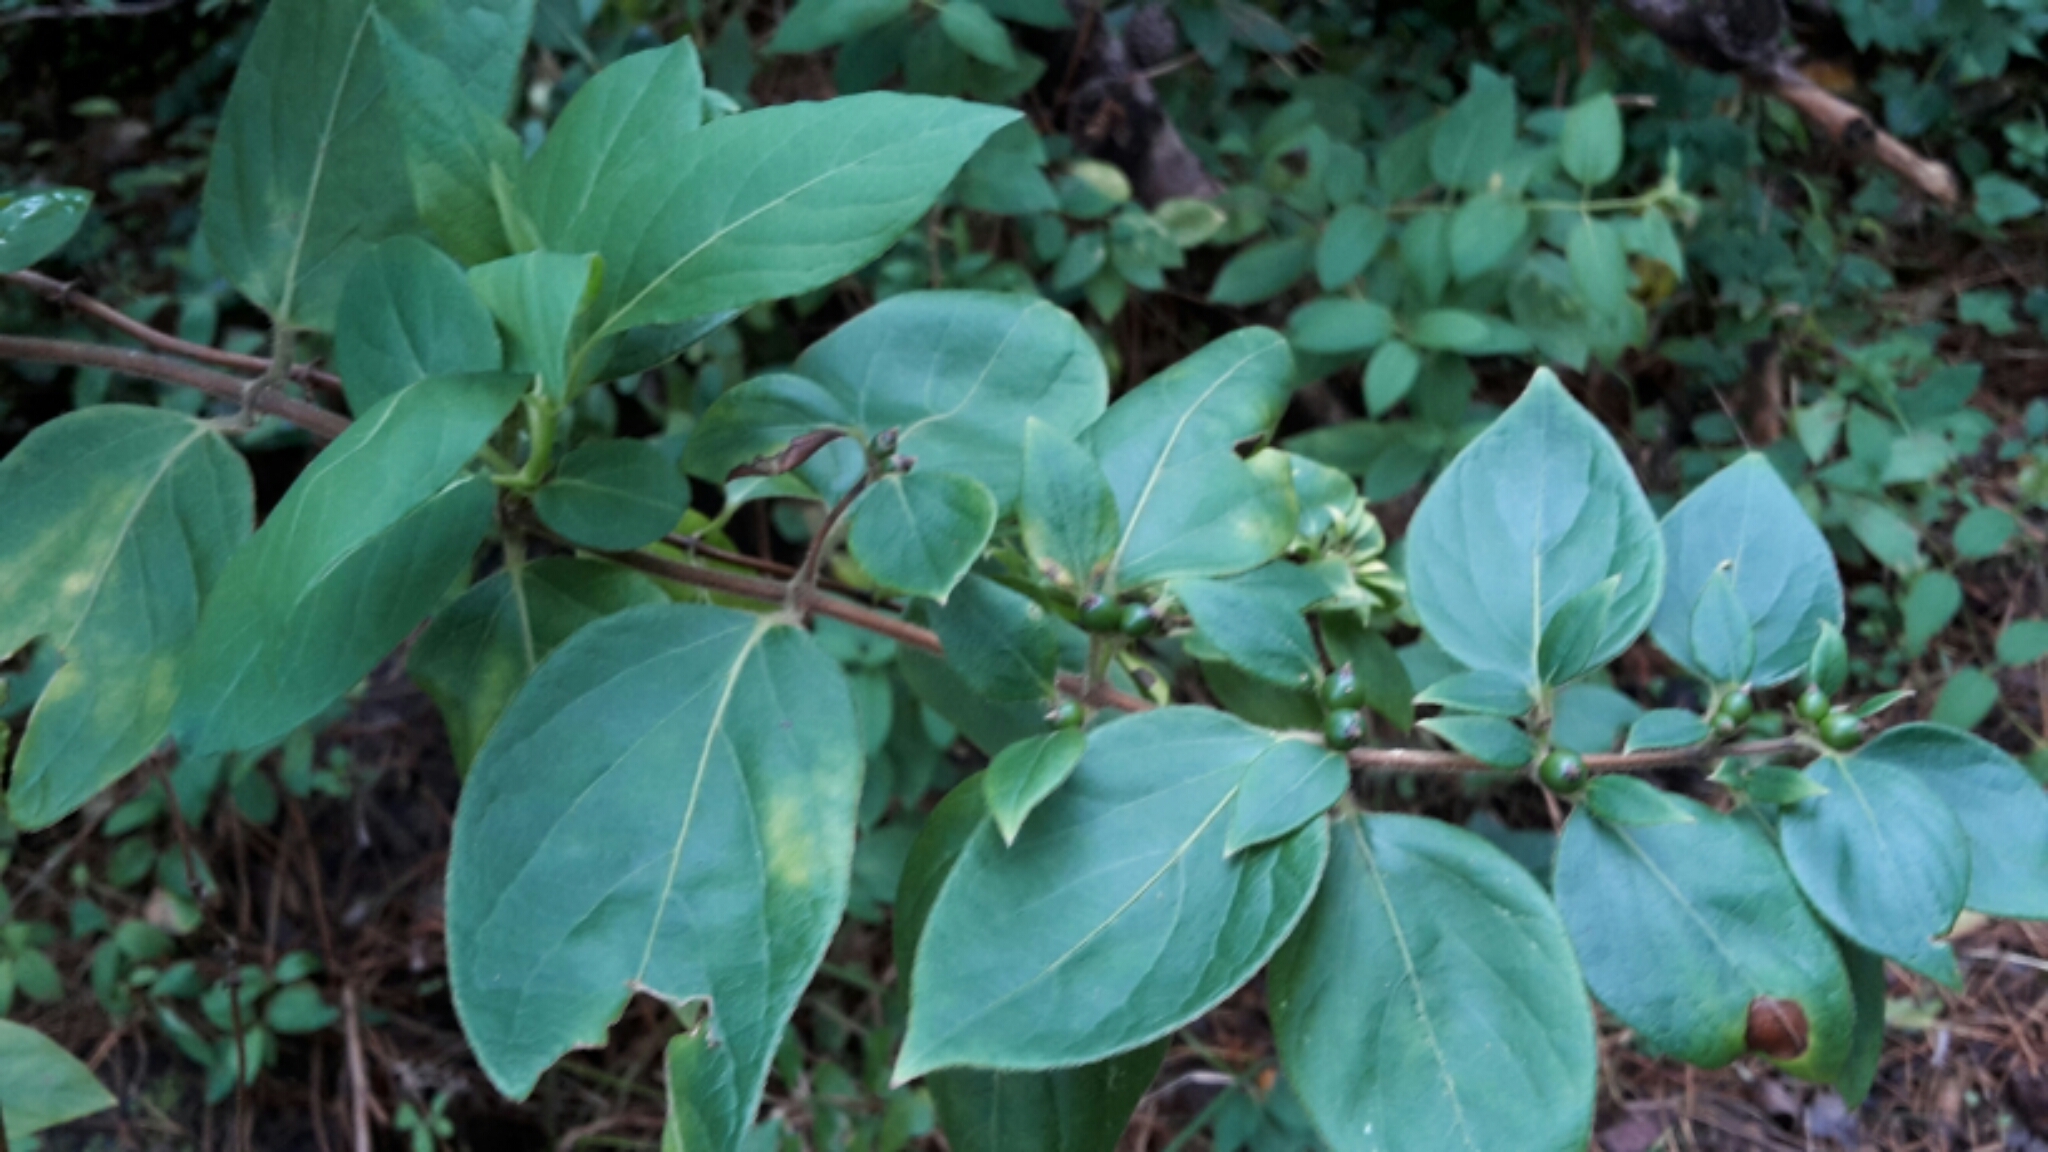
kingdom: Plantae
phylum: Tracheophyta
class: Magnoliopsida
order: Dipsacales
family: Caprifoliaceae
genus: Lonicera
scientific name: Lonicera japonica
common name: Japanese honeysuckle
